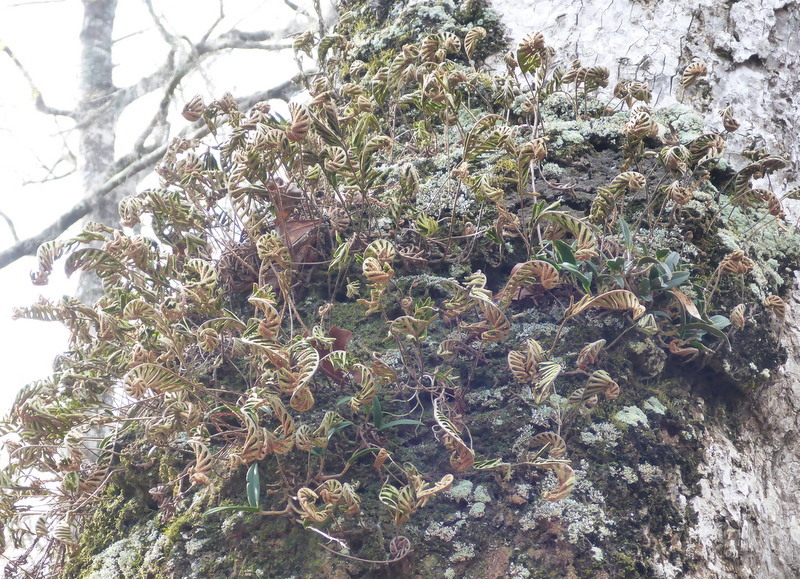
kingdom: Plantae
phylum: Tracheophyta
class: Polypodiopsida
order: Polypodiales
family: Polypodiaceae
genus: Pleopeltis
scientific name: Pleopeltis michauxiana
